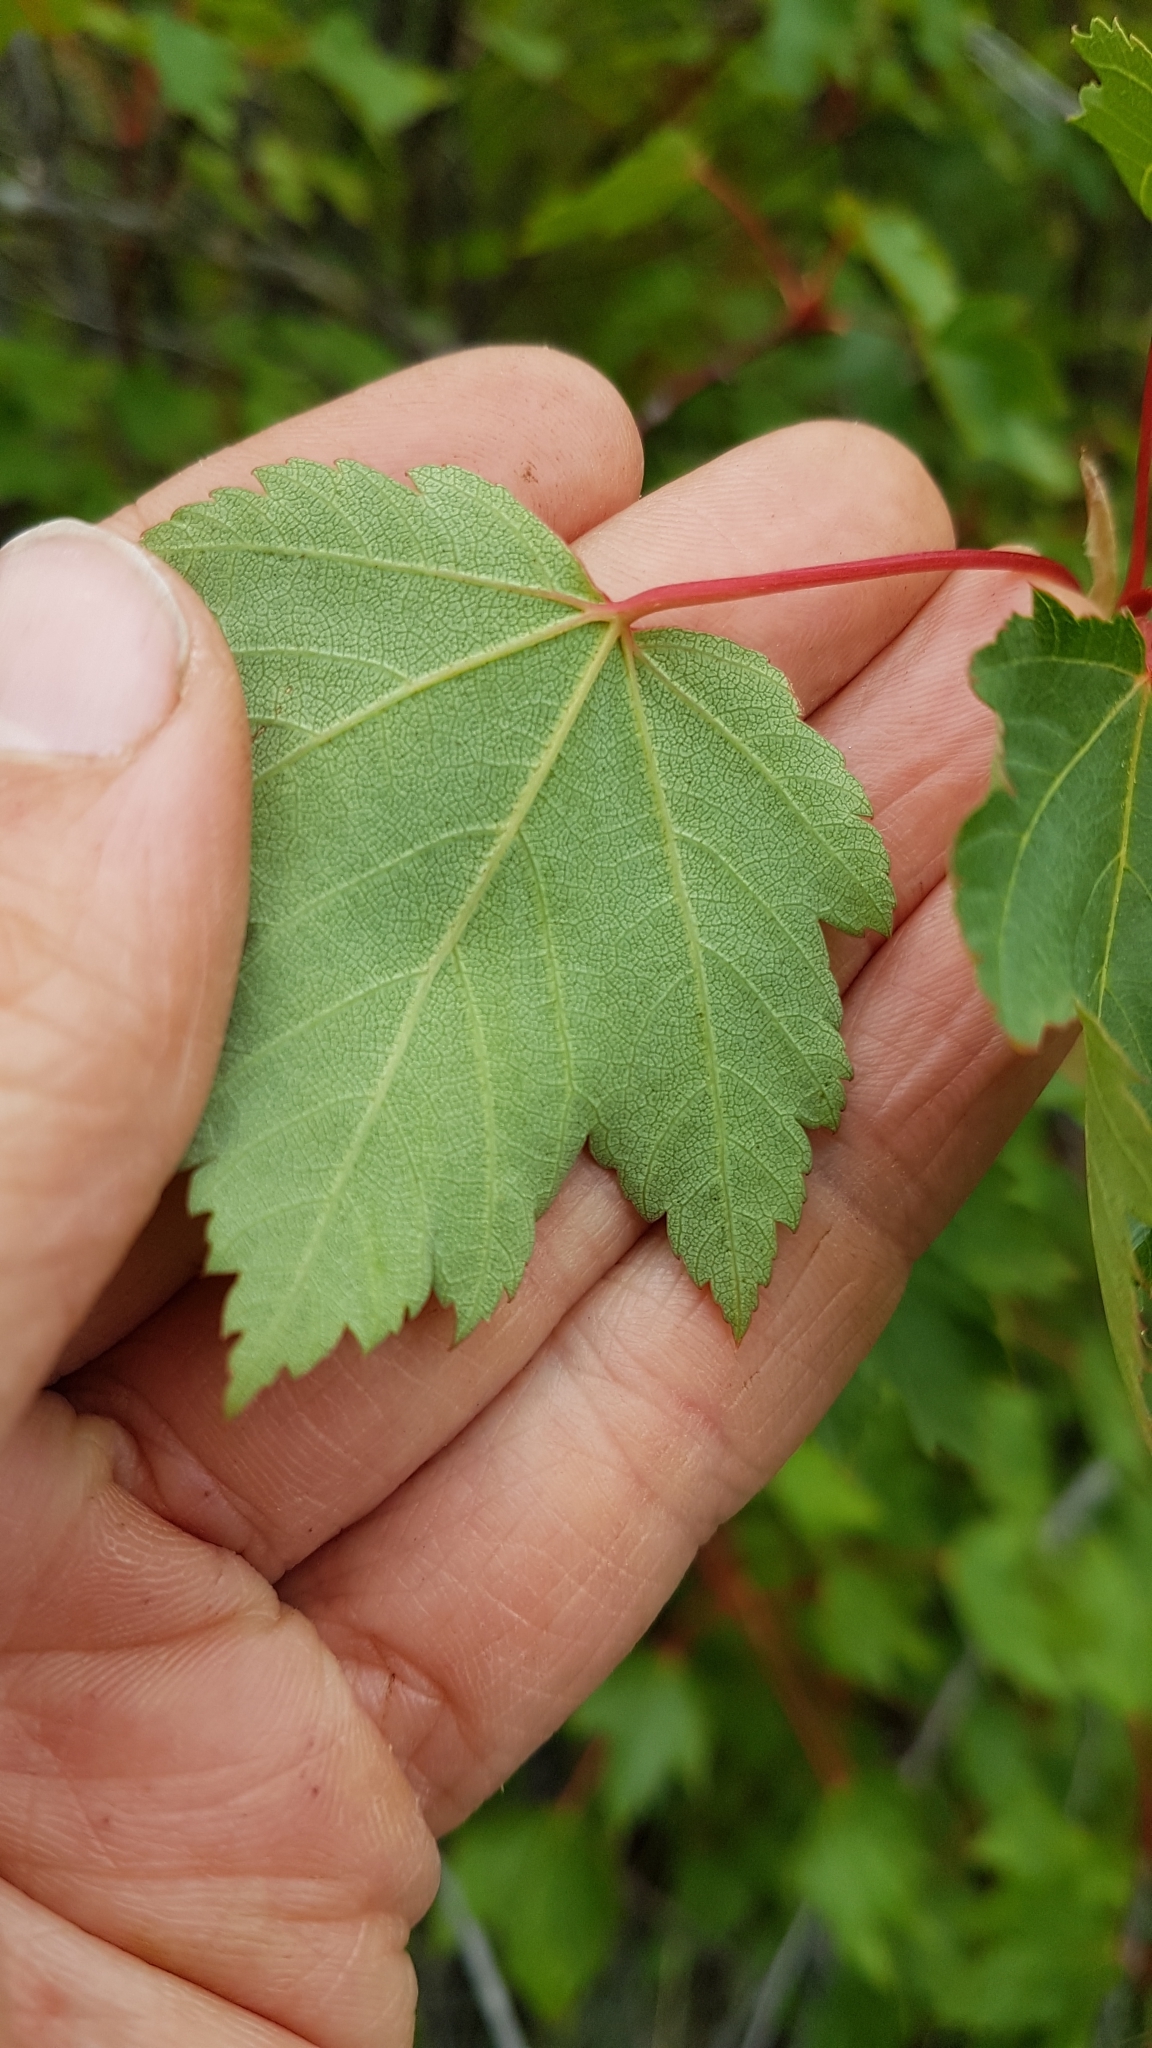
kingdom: Plantae
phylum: Tracheophyta
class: Magnoliopsida
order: Sapindales
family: Sapindaceae
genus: Acer
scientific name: Acer glabrum
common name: Rocky mountain maple
